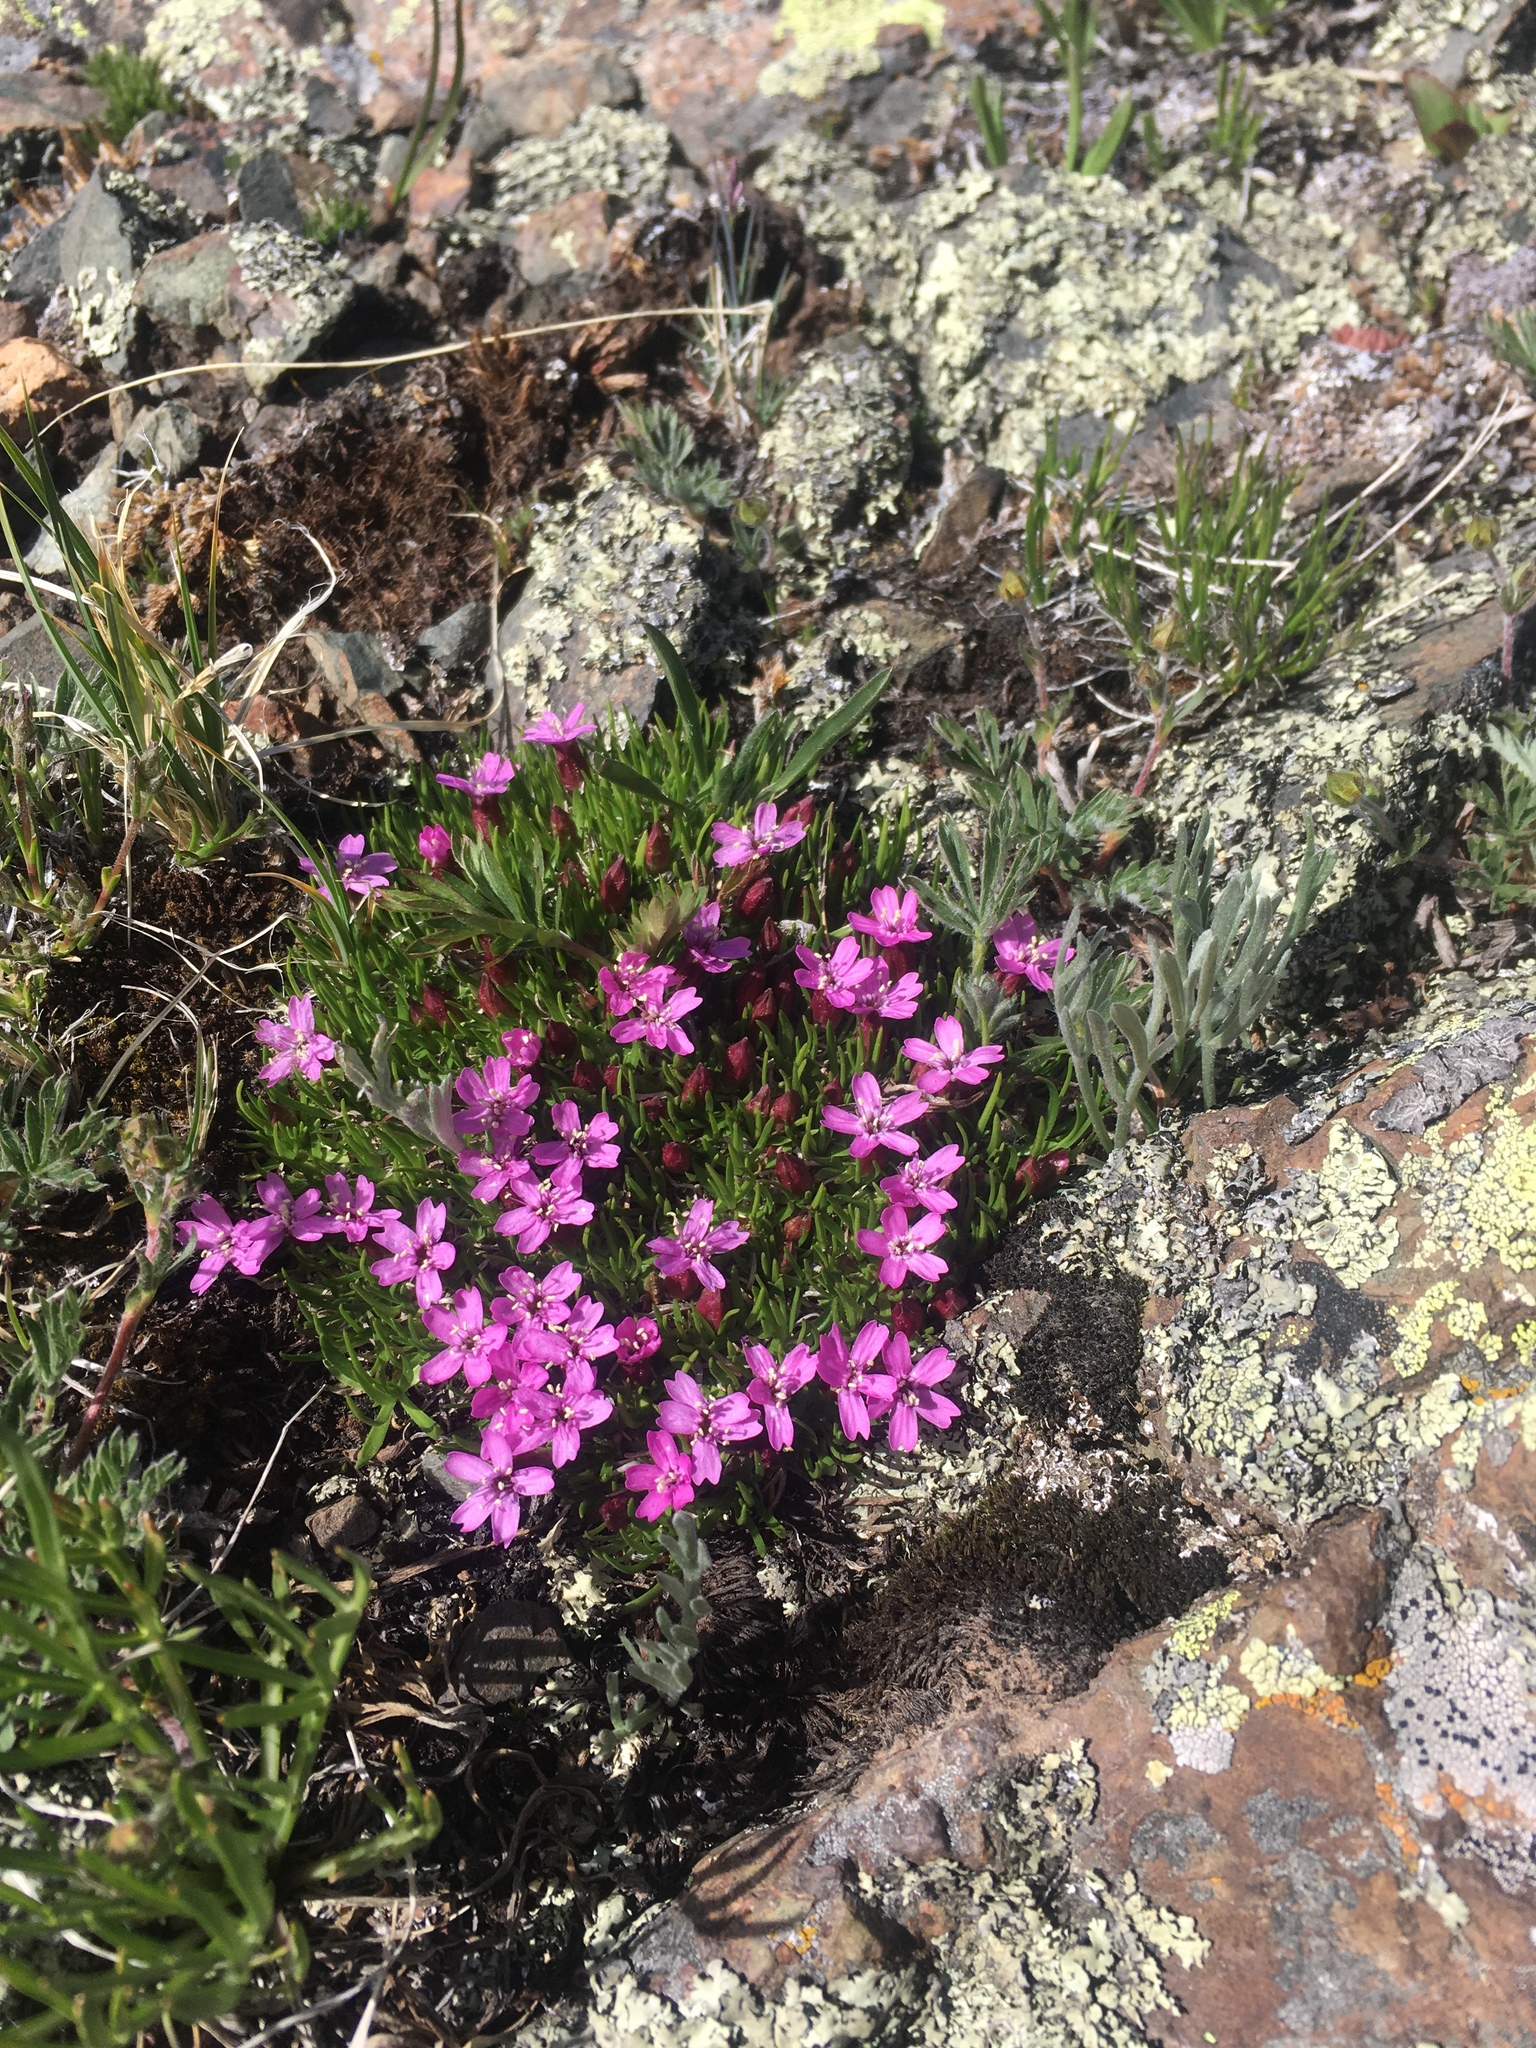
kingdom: Plantae
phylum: Tracheophyta
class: Magnoliopsida
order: Caryophyllales
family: Caryophyllaceae
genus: Silene
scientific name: Silene acaulis
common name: Moss campion
